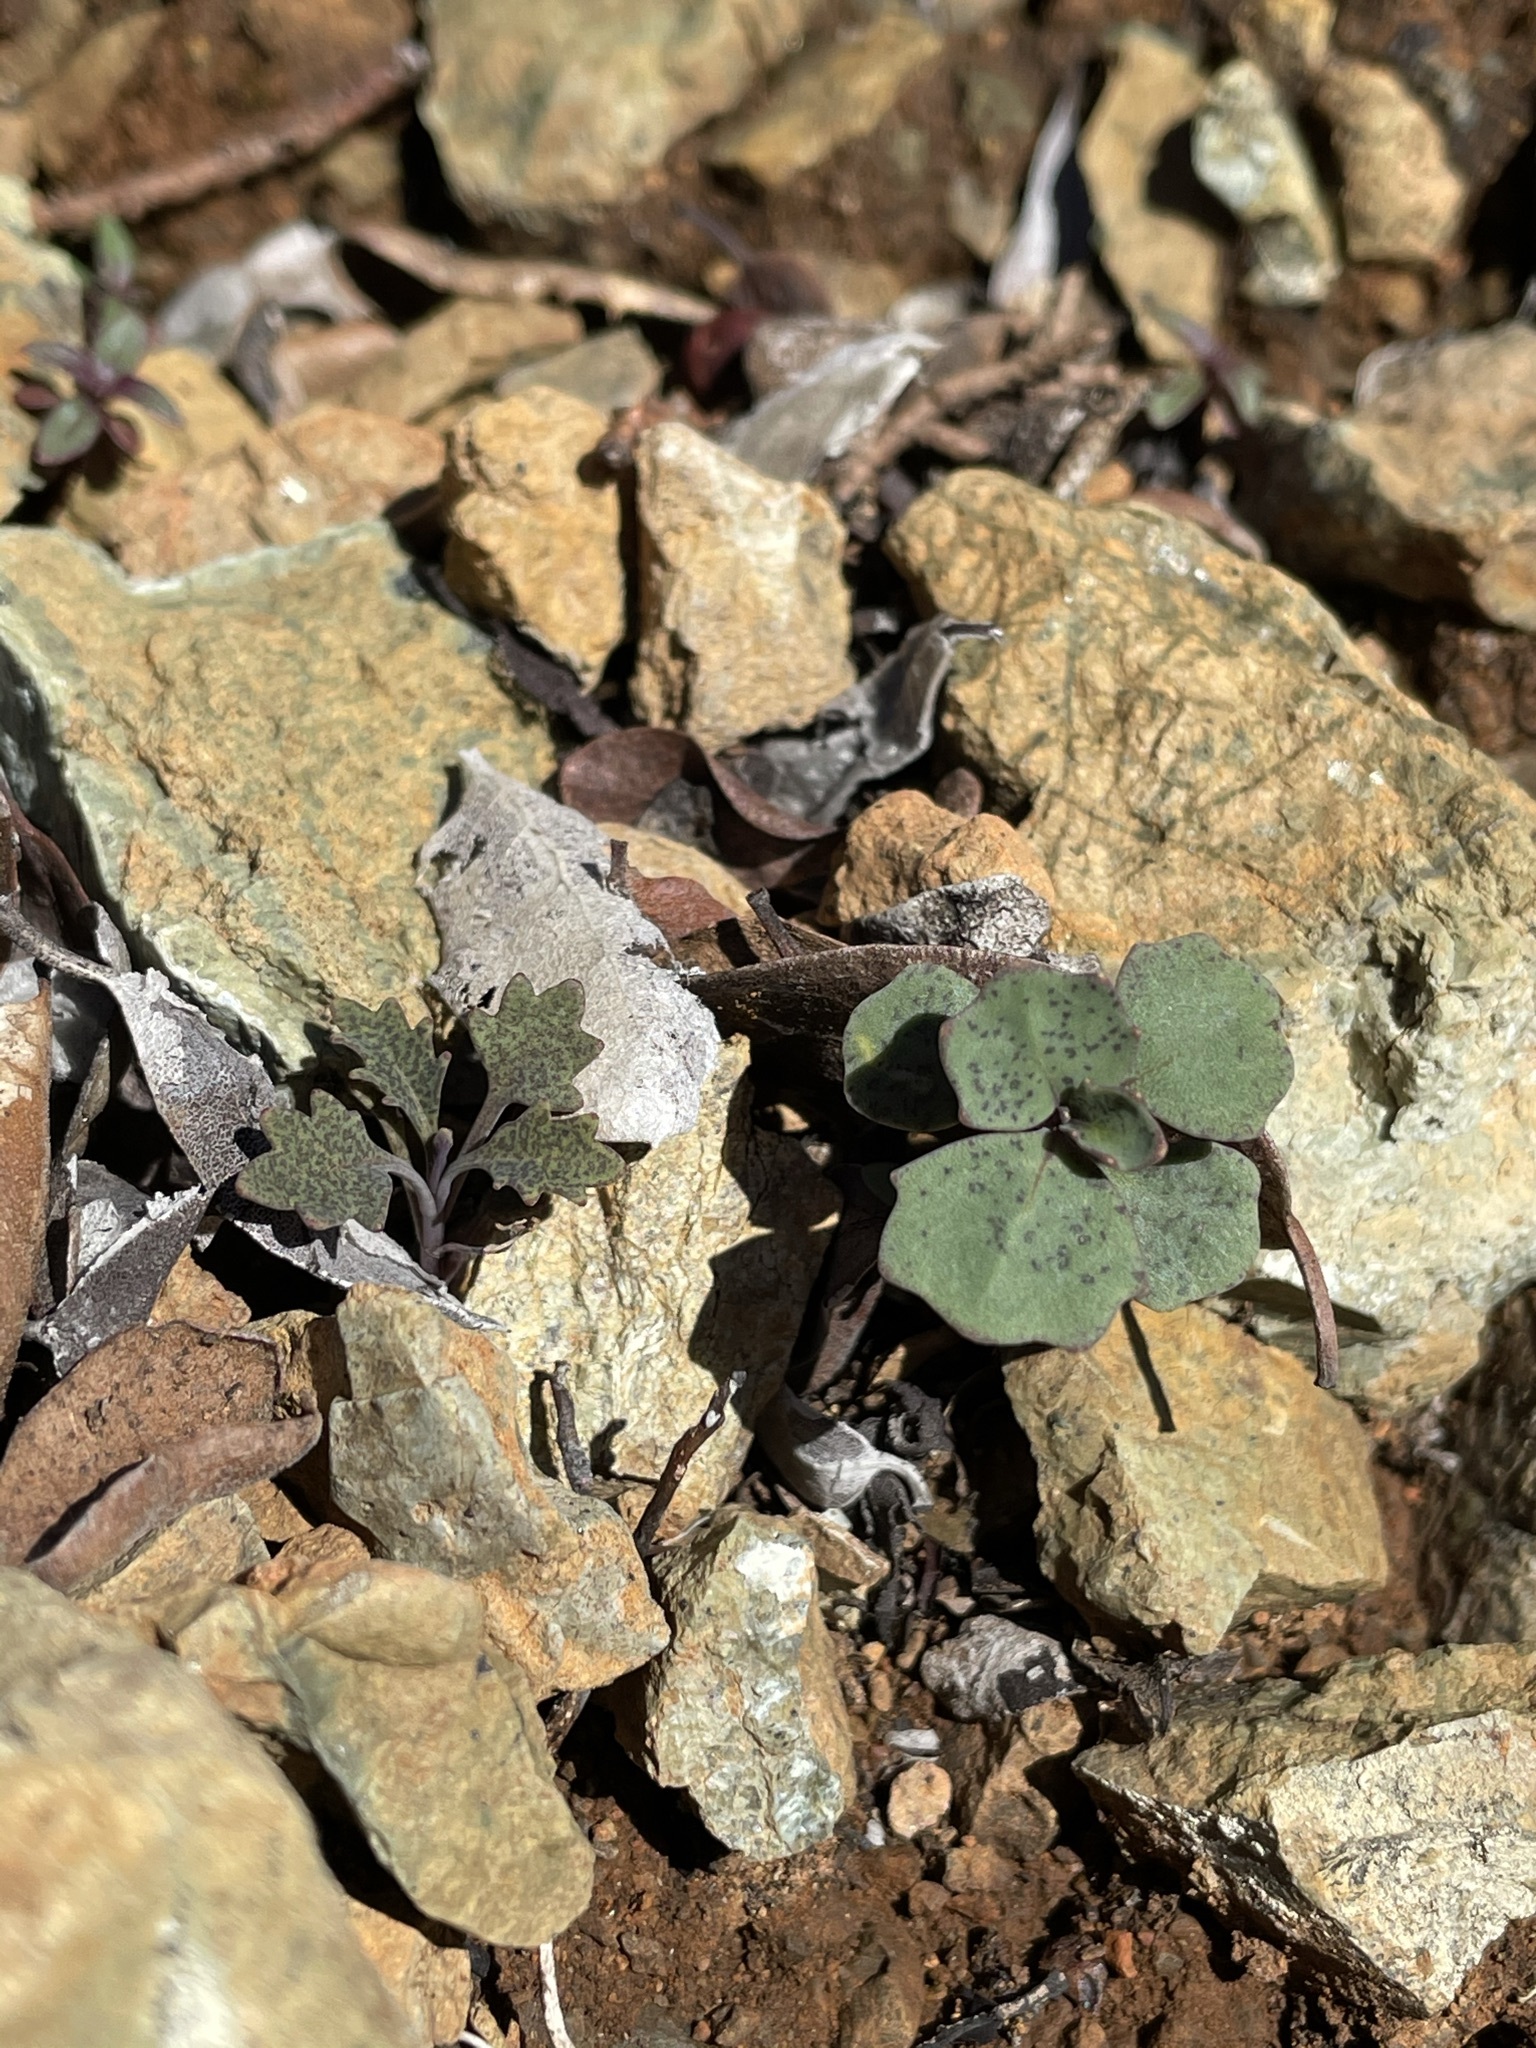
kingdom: Plantae
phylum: Tracheophyta
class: Magnoliopsida
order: Brassicales
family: Brassicaceae
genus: Streptanthus
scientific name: Streptanthus barbiger
